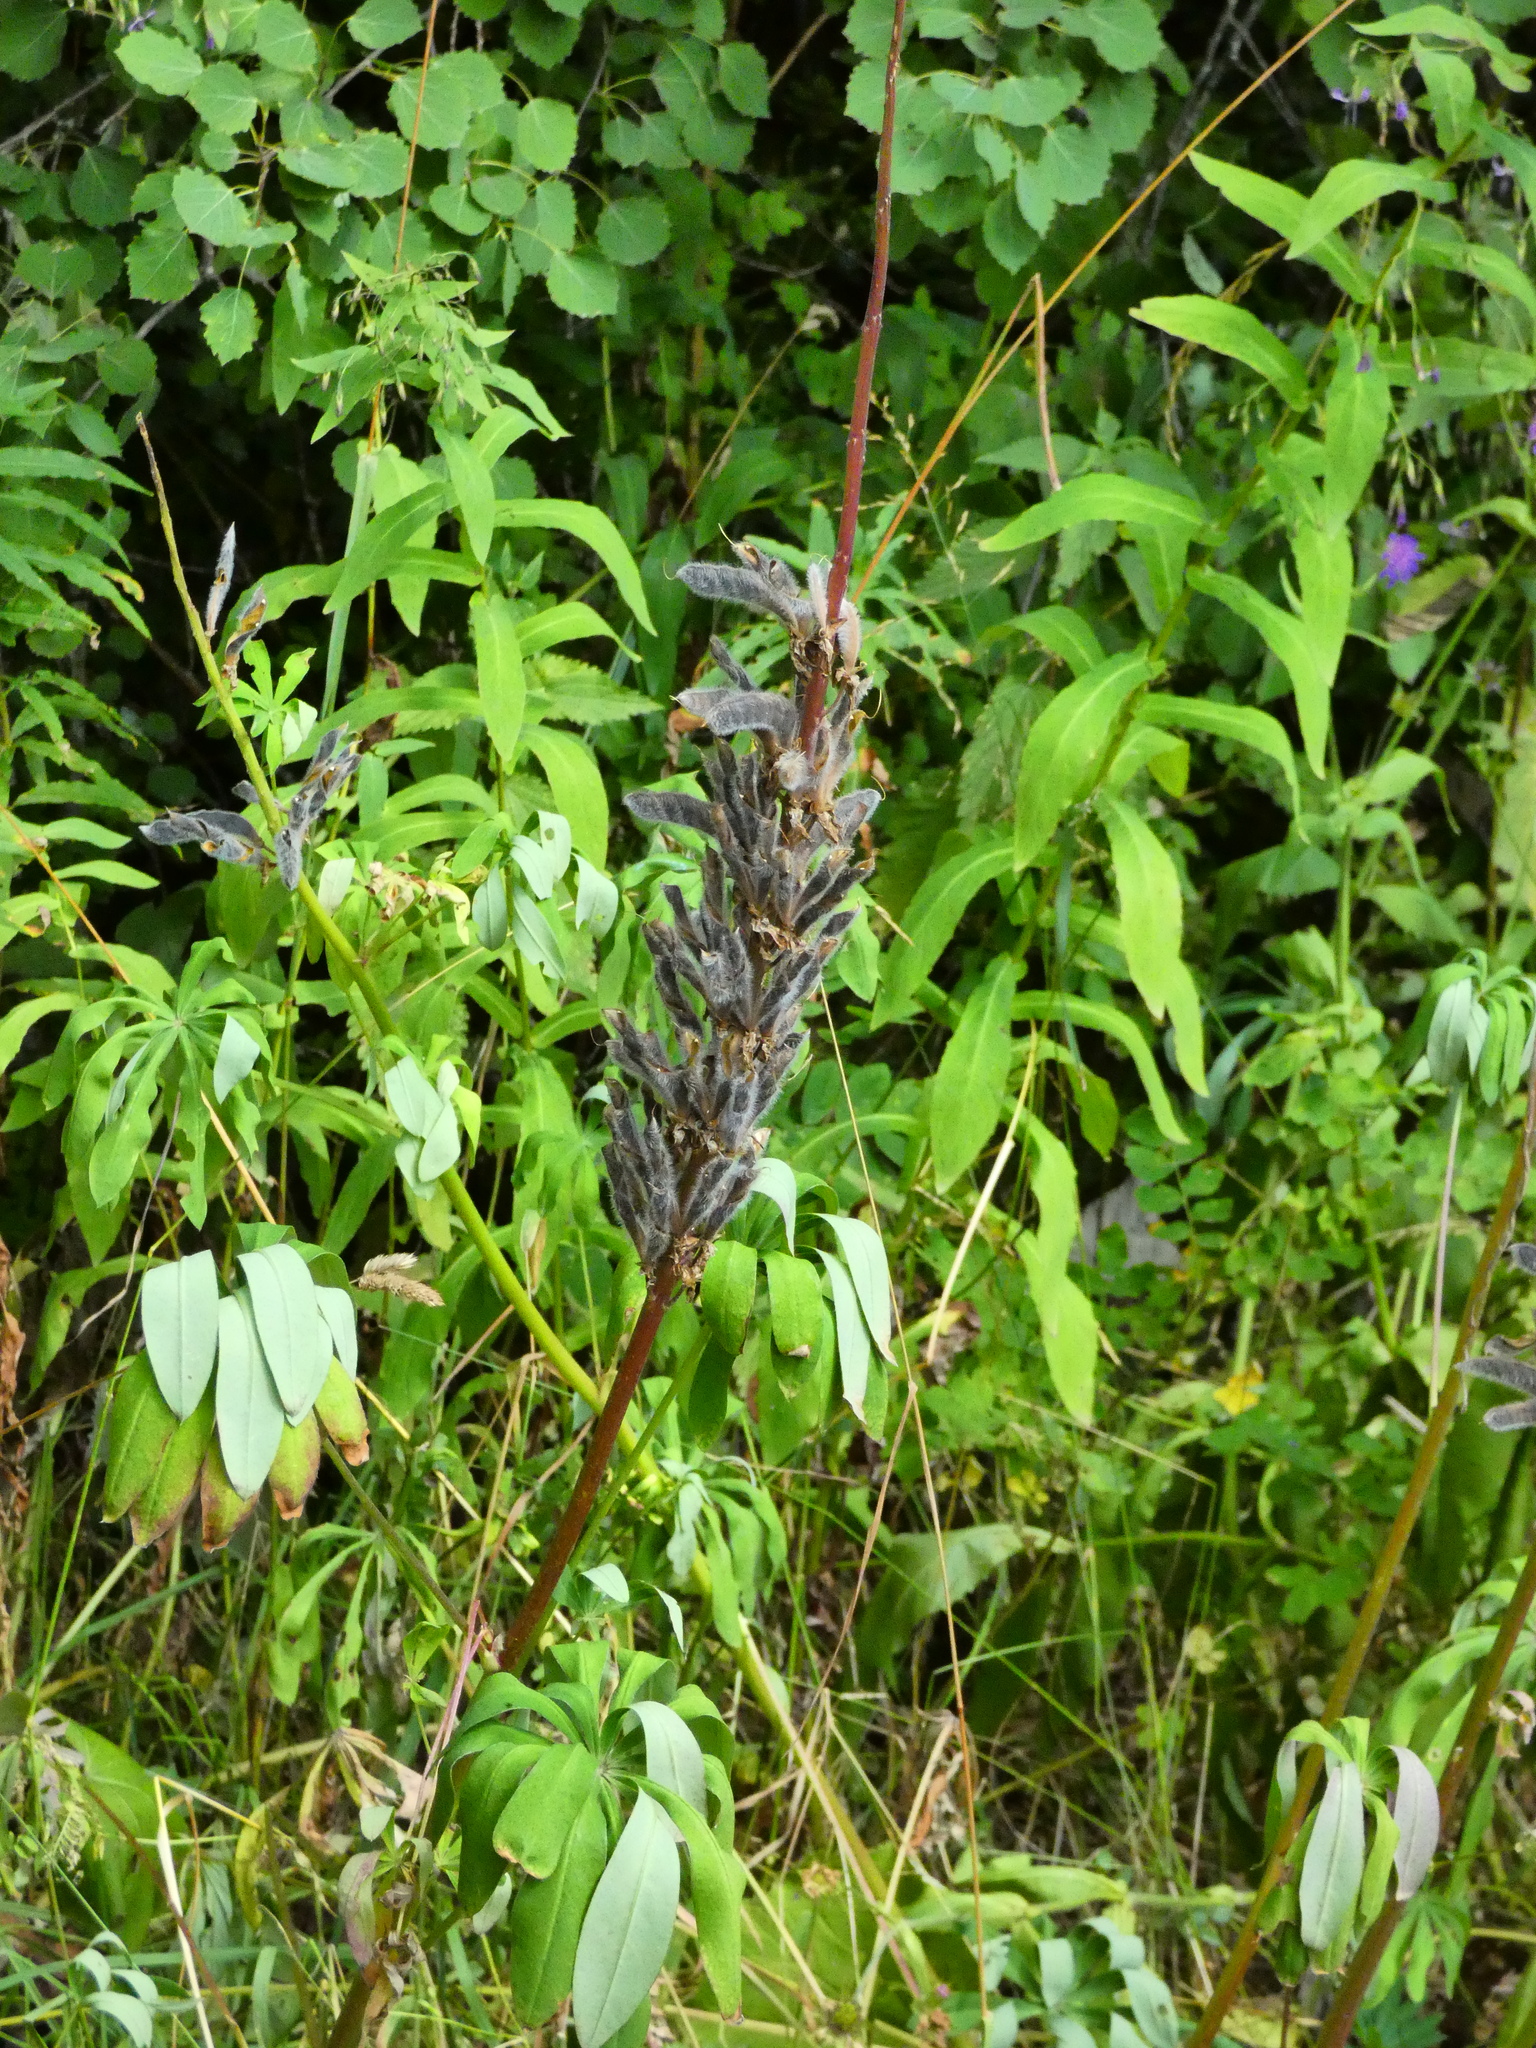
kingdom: Plantae
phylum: Tracheophyta
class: Magnoliopsida
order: Fabales
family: Fabaceae
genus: Lupinus
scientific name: Lupinus polyphyllus
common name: Garden lupin
